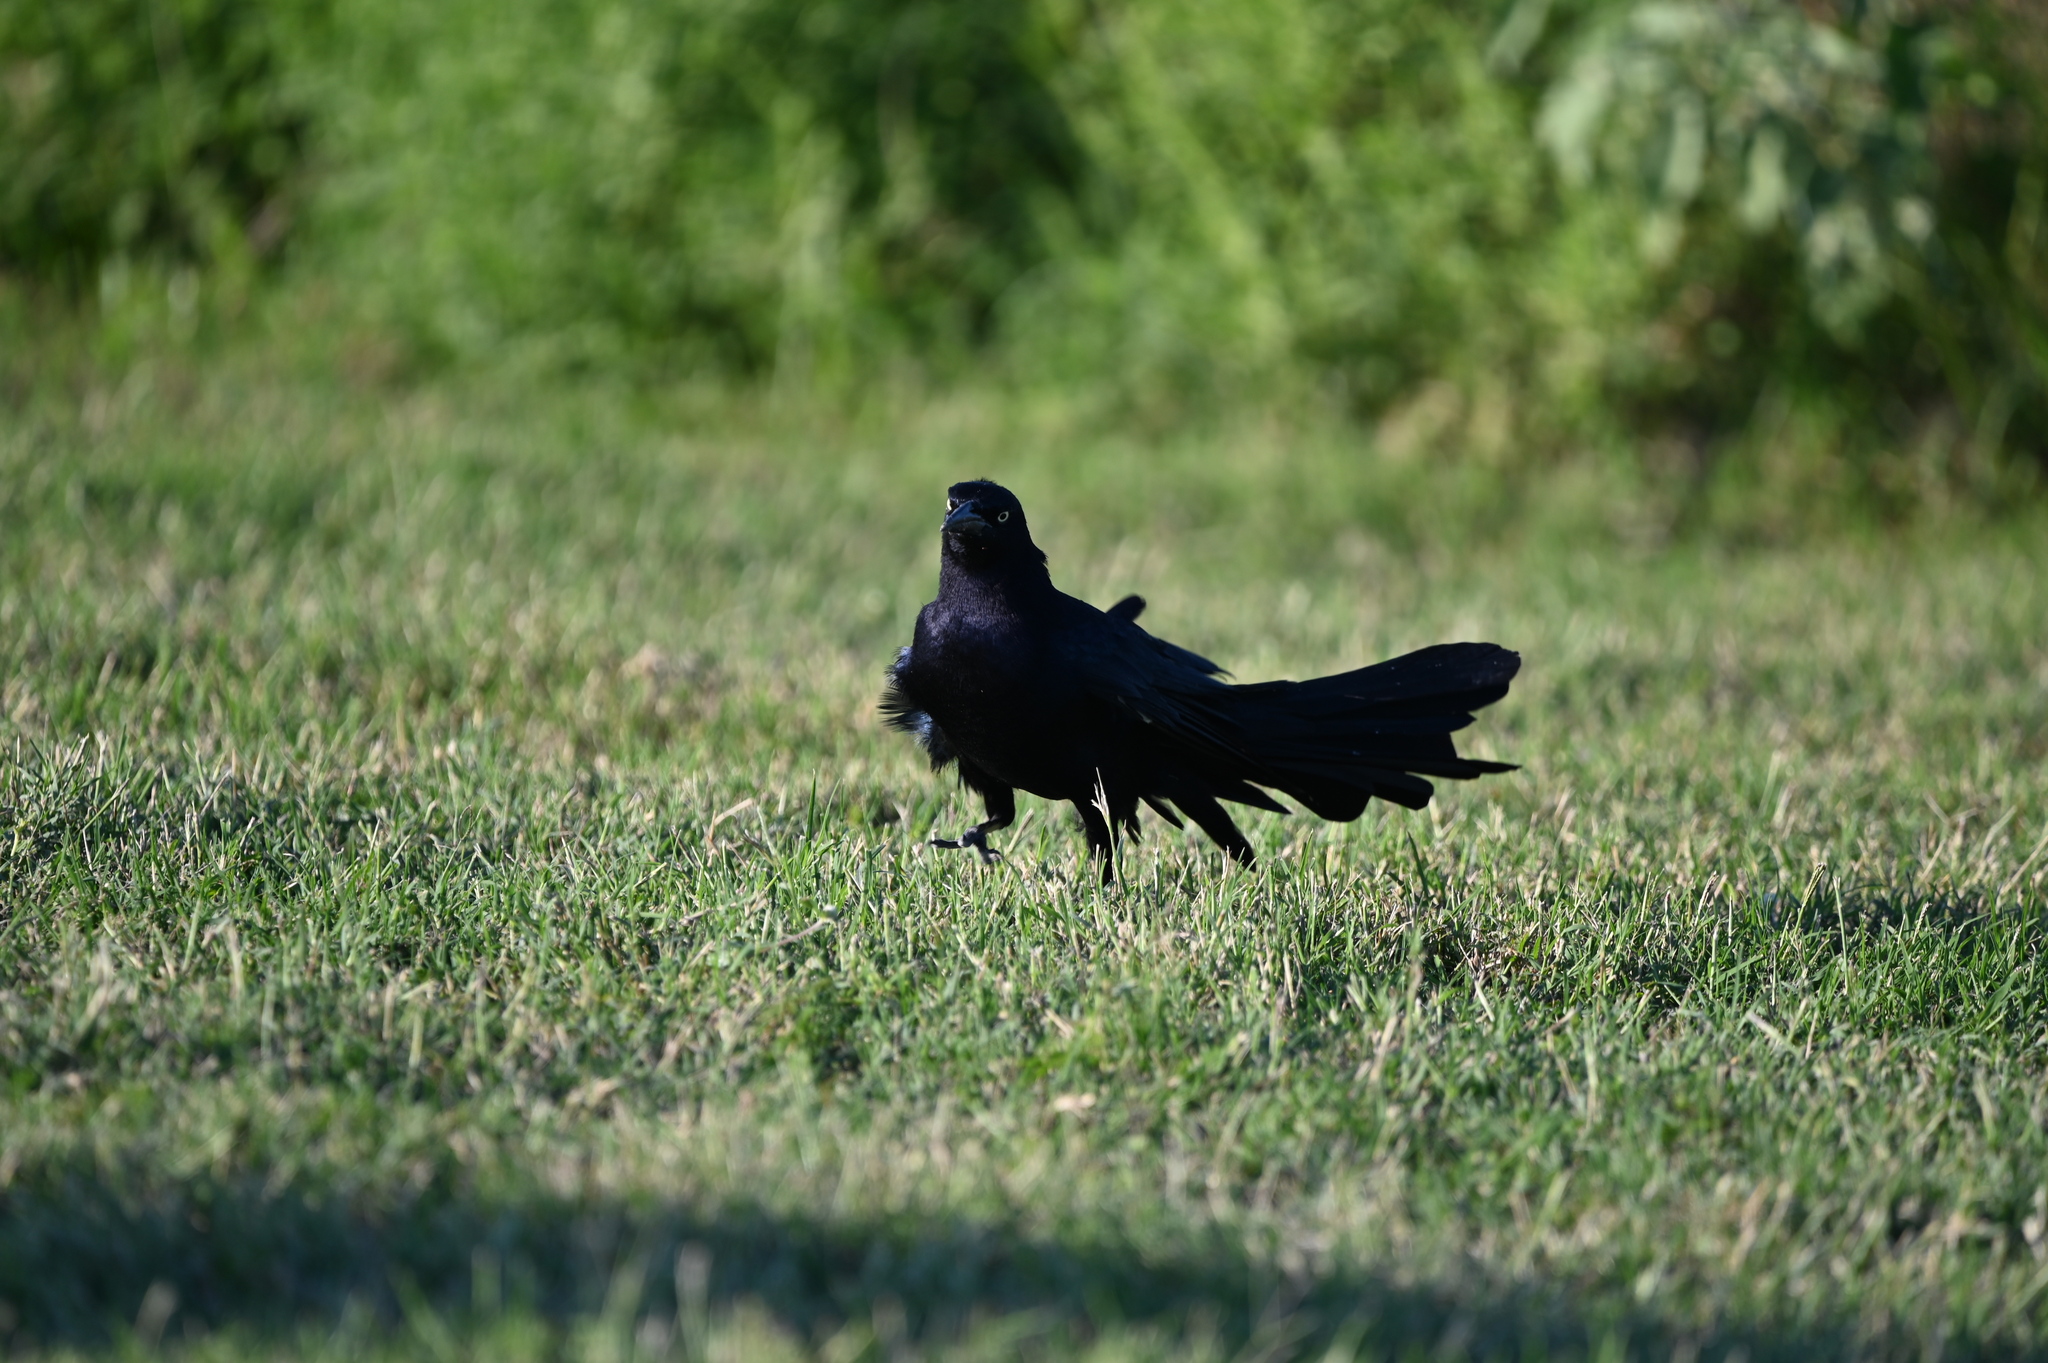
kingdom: Animalia
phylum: Chordata
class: Aves
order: Passeriformes
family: Icteridae
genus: Quiscalus
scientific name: Quiscalus mexicanus
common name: Great-tailed grackle
